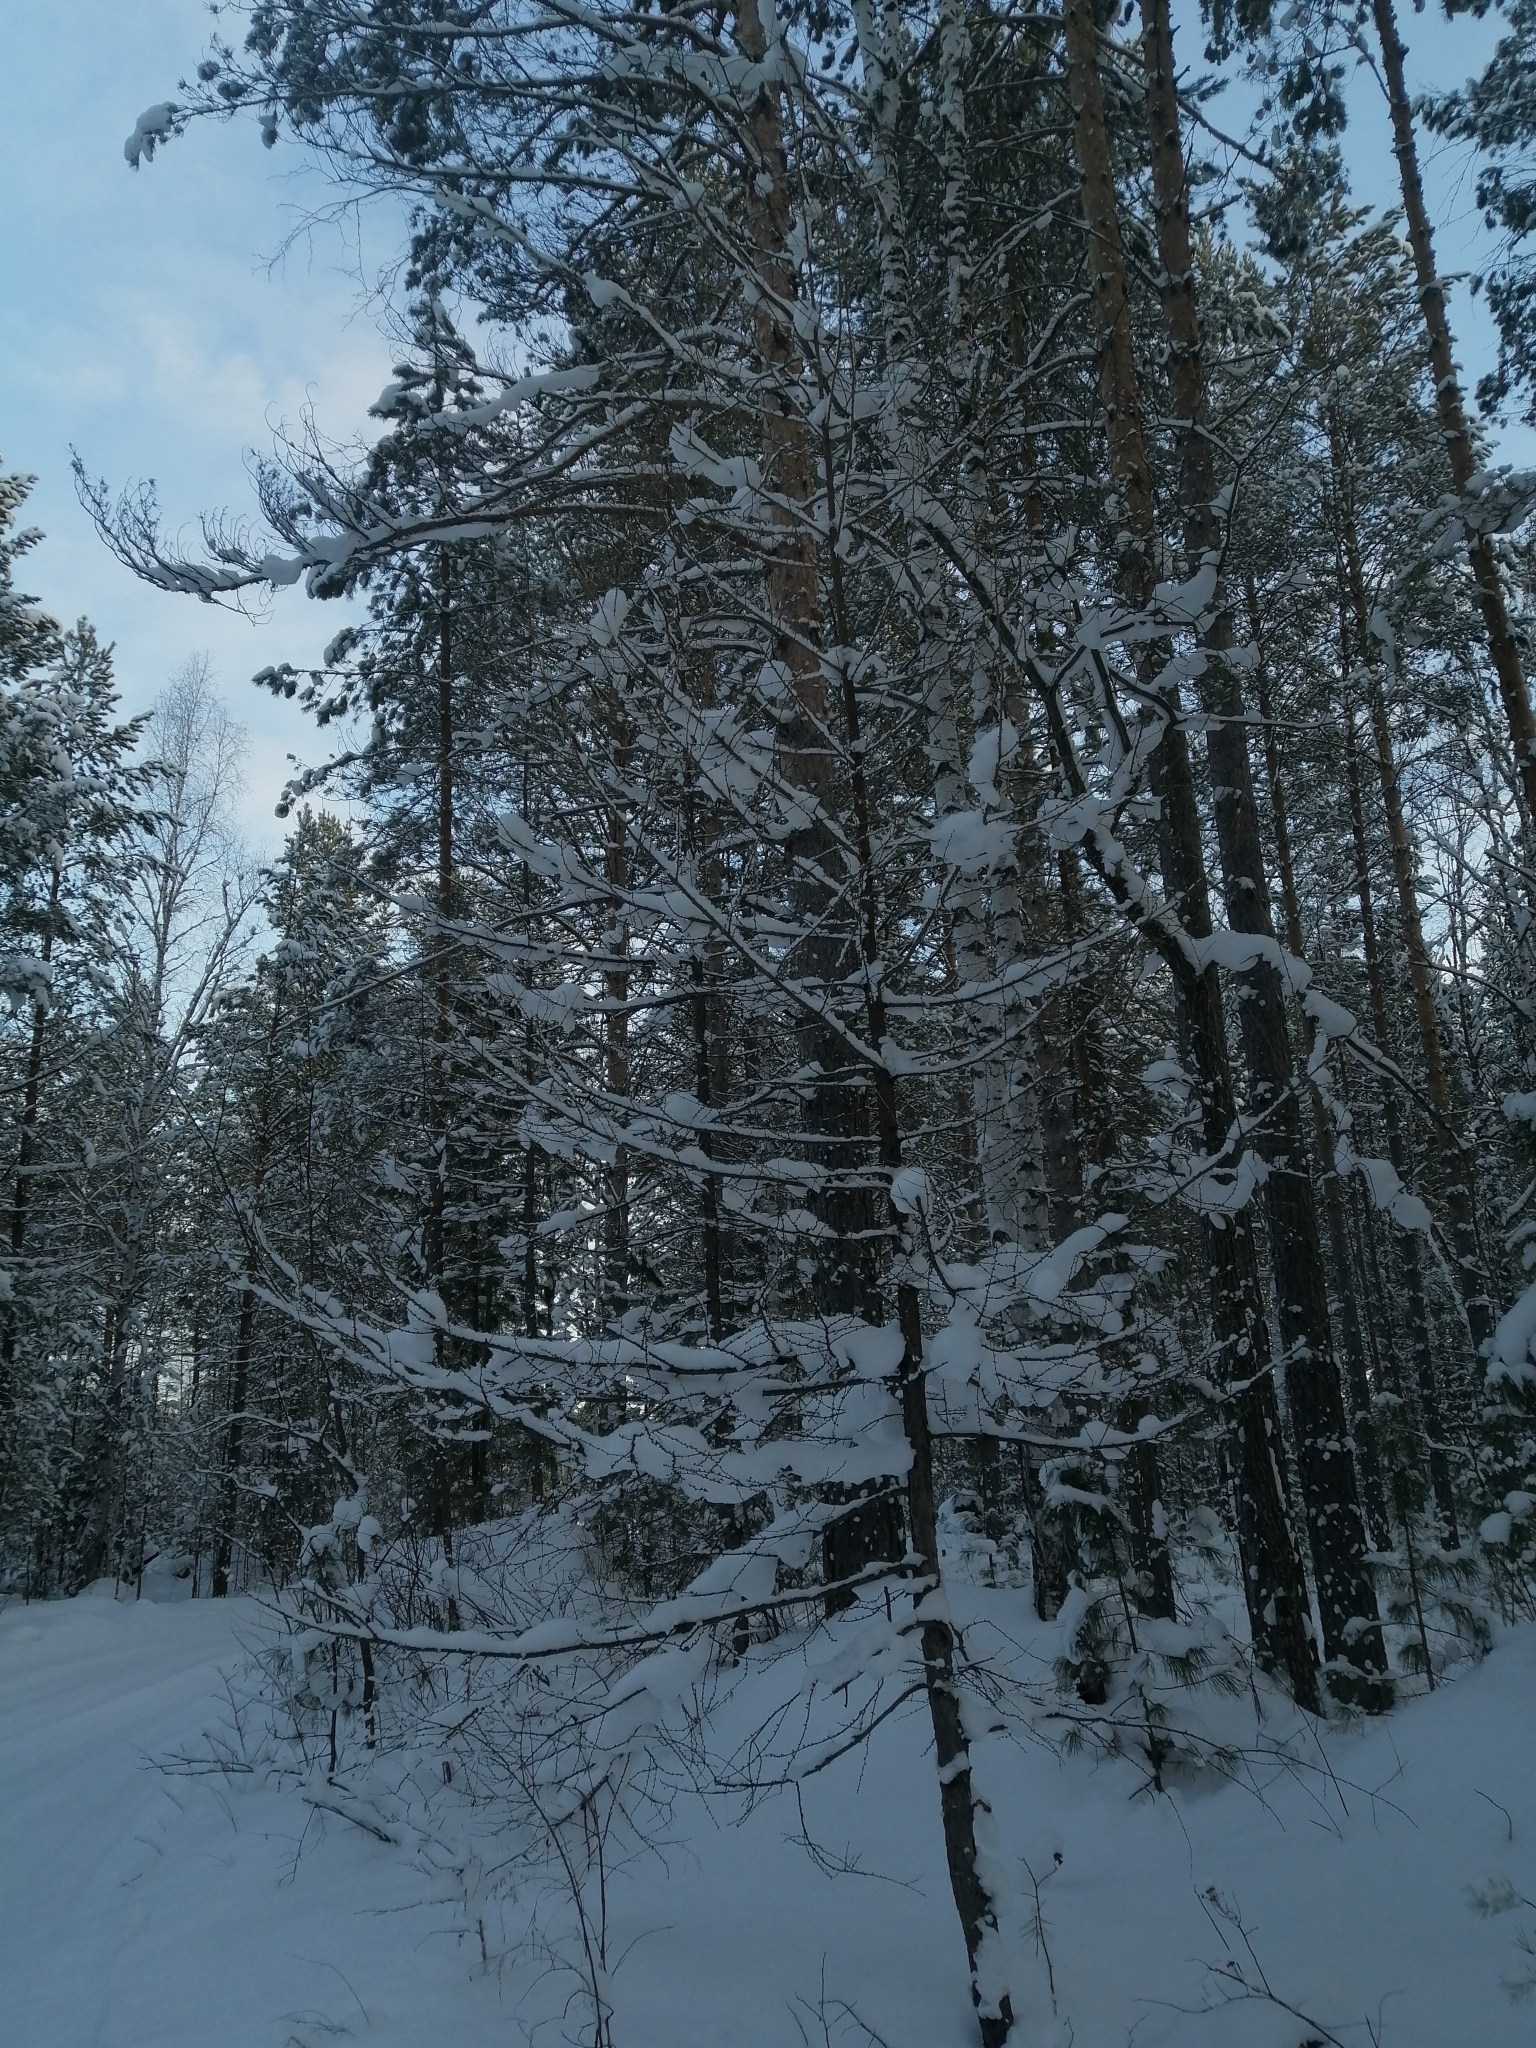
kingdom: Plantae
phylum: Tracheophyta
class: Pinopsida
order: Pinales
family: Pinaceae
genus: Larix
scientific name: Larix sibirica
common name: Siberian larch
